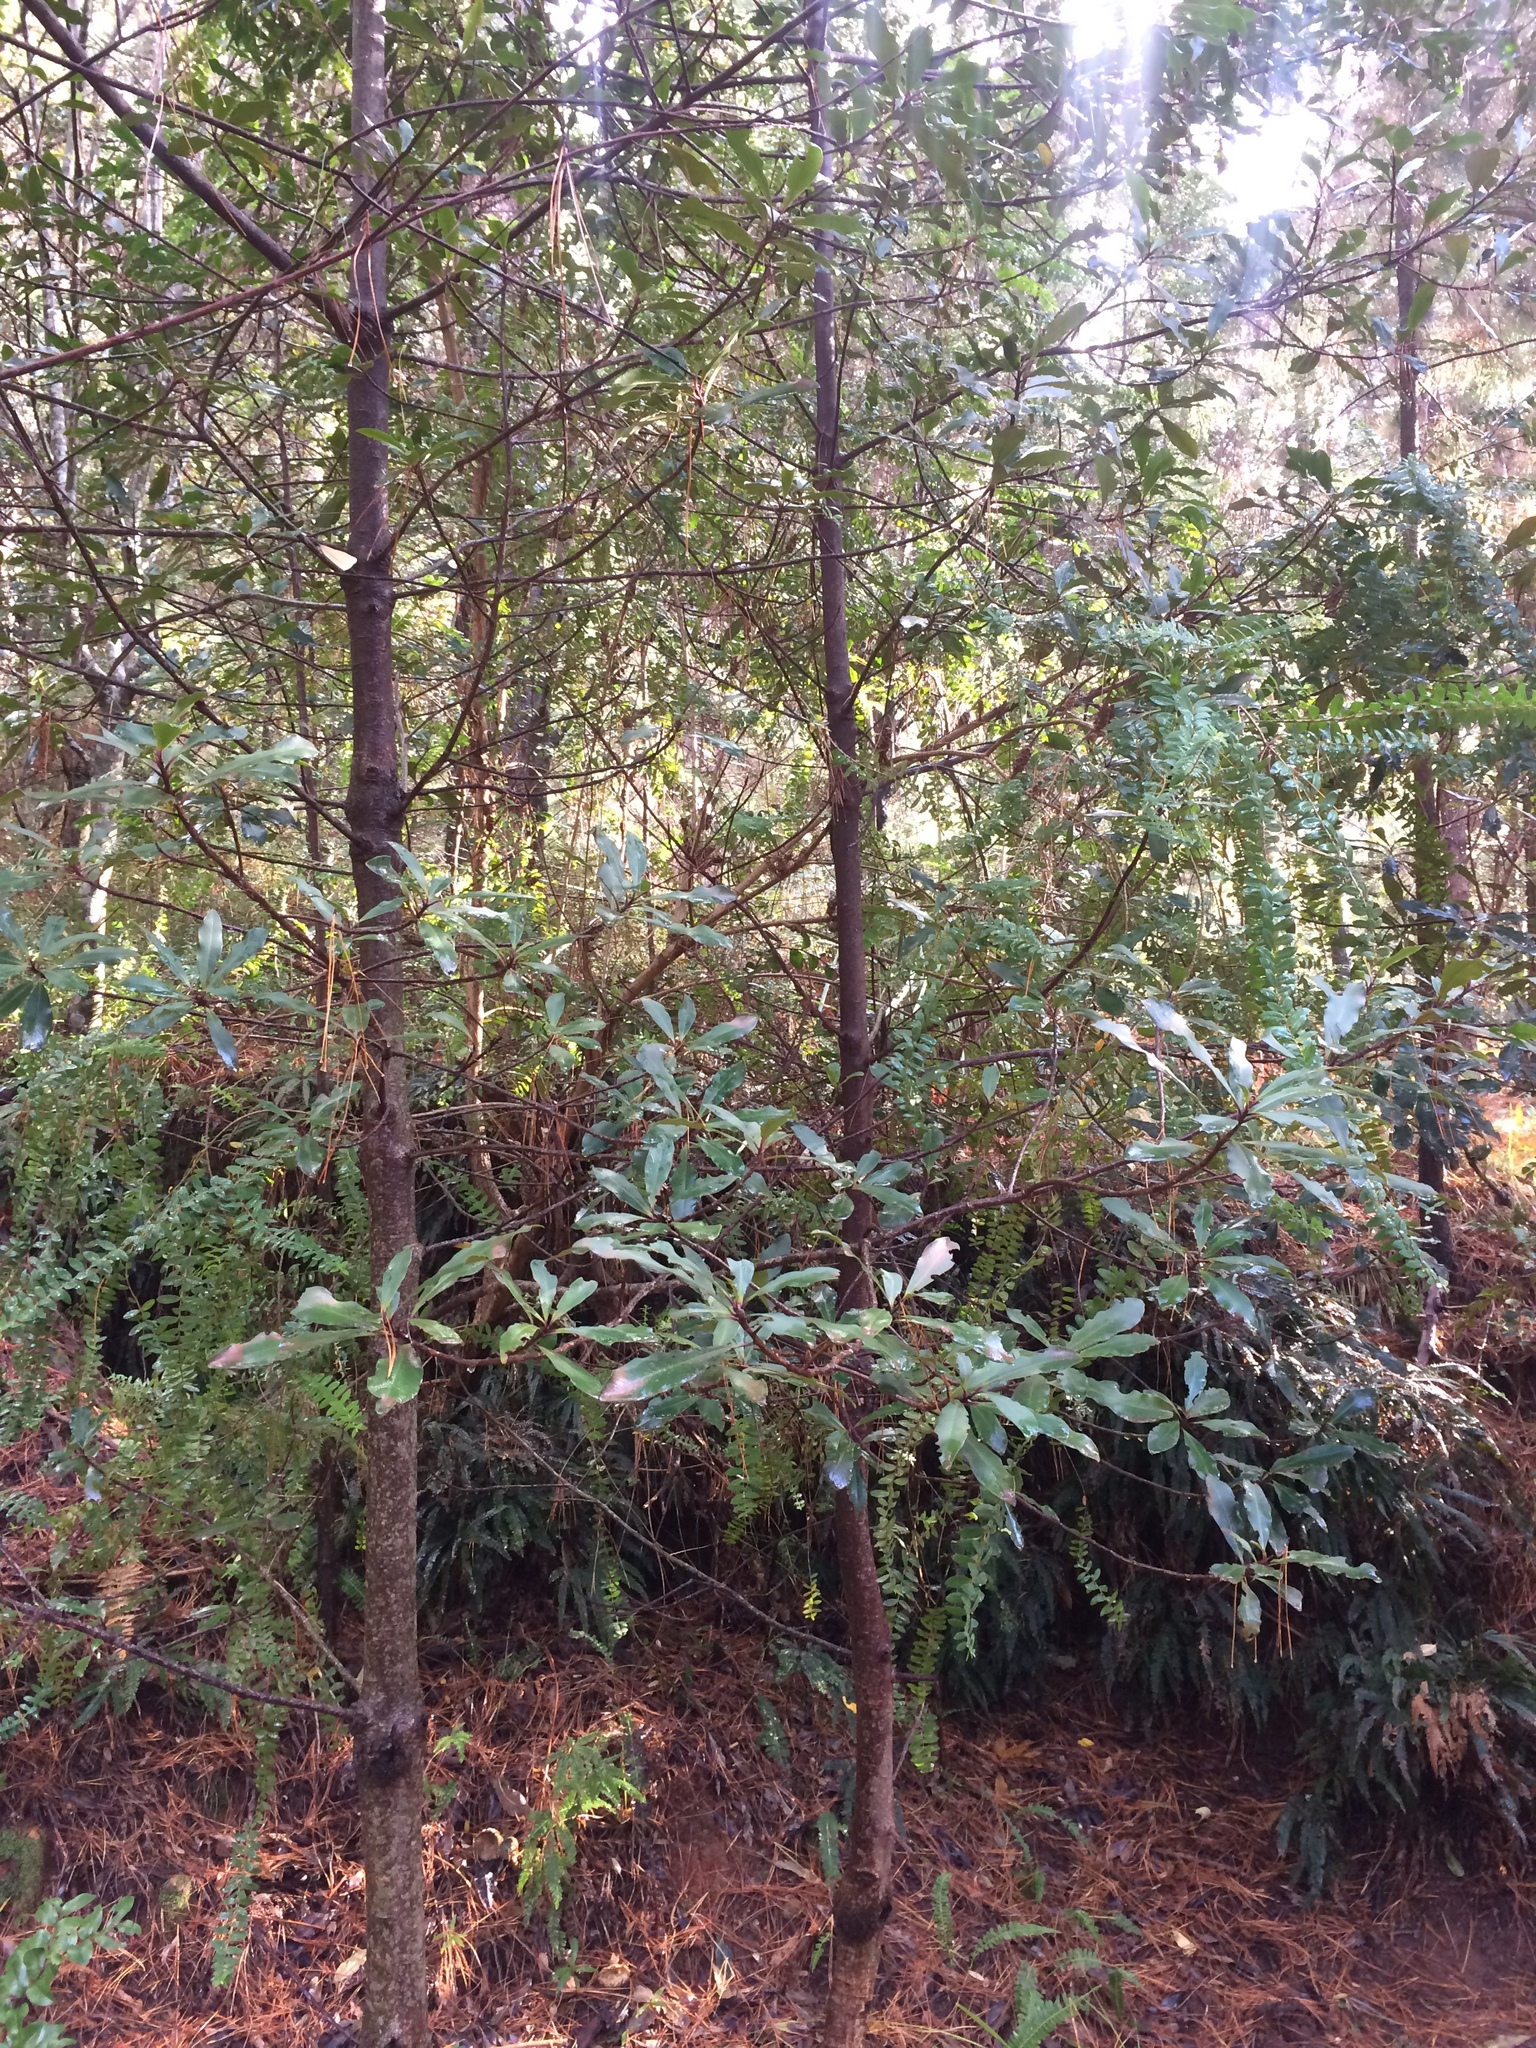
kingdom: Plantae
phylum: Tracheophyta
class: Magnoliopsida
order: Myrtales
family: Myrtaceae
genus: Melaleuca
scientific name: Melaleuca hypericifolia
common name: Red honey myrtle
